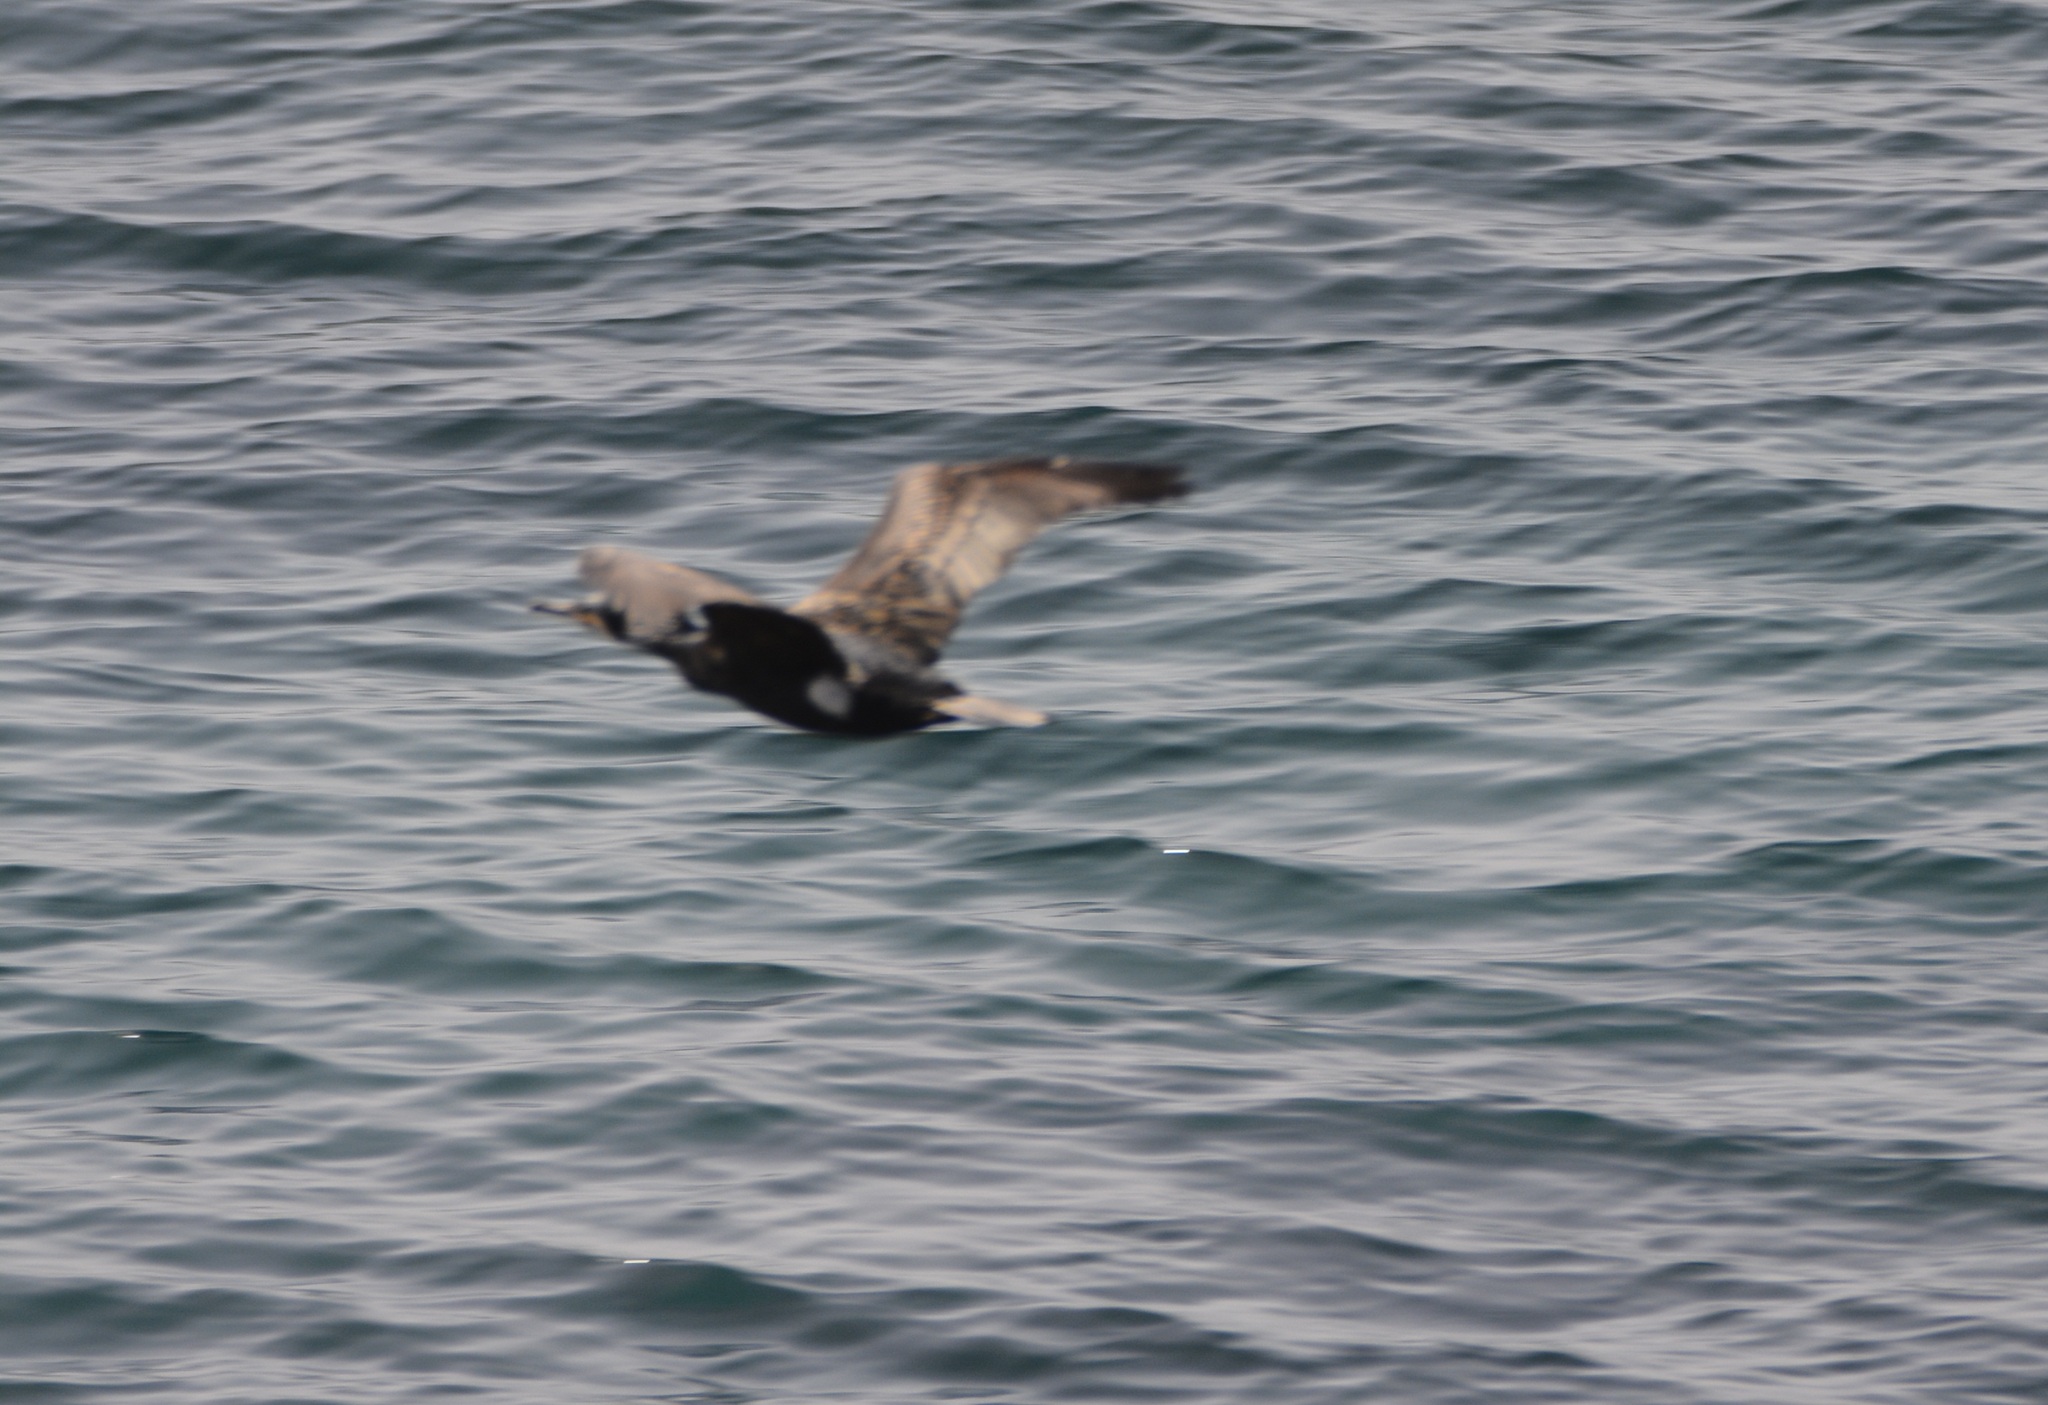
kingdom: Animalia
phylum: Chordata
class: Aves
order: Suliformes
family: Phalacrocoracidae
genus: Phalacrocorax
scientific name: Phalacrocorax carbo
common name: Great cormorant
